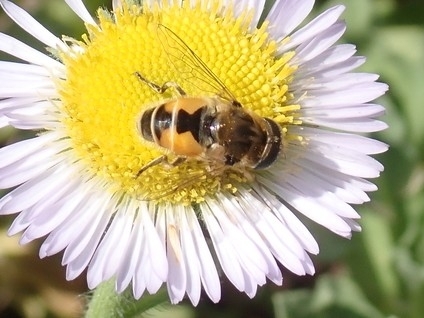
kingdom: Animalia
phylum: Arthropoda
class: Insecta
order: Diptera
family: Syrphidae
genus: Eristalis
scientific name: Eristalis arbustorum
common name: Hover fly
